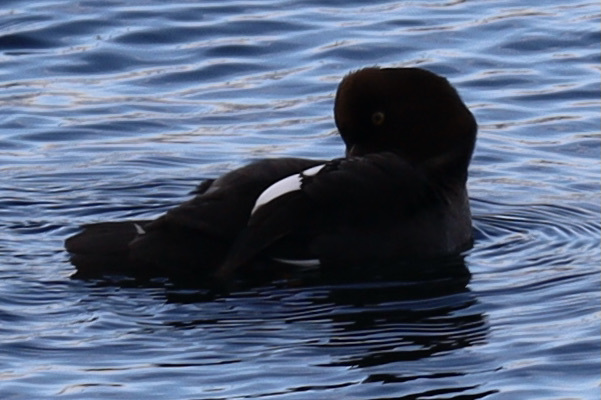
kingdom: Animalia
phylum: Chordata
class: Aves
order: Anseriformes
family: Anatidae
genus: Bucephala
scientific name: Bucephala clangula
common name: Common goldeneye
